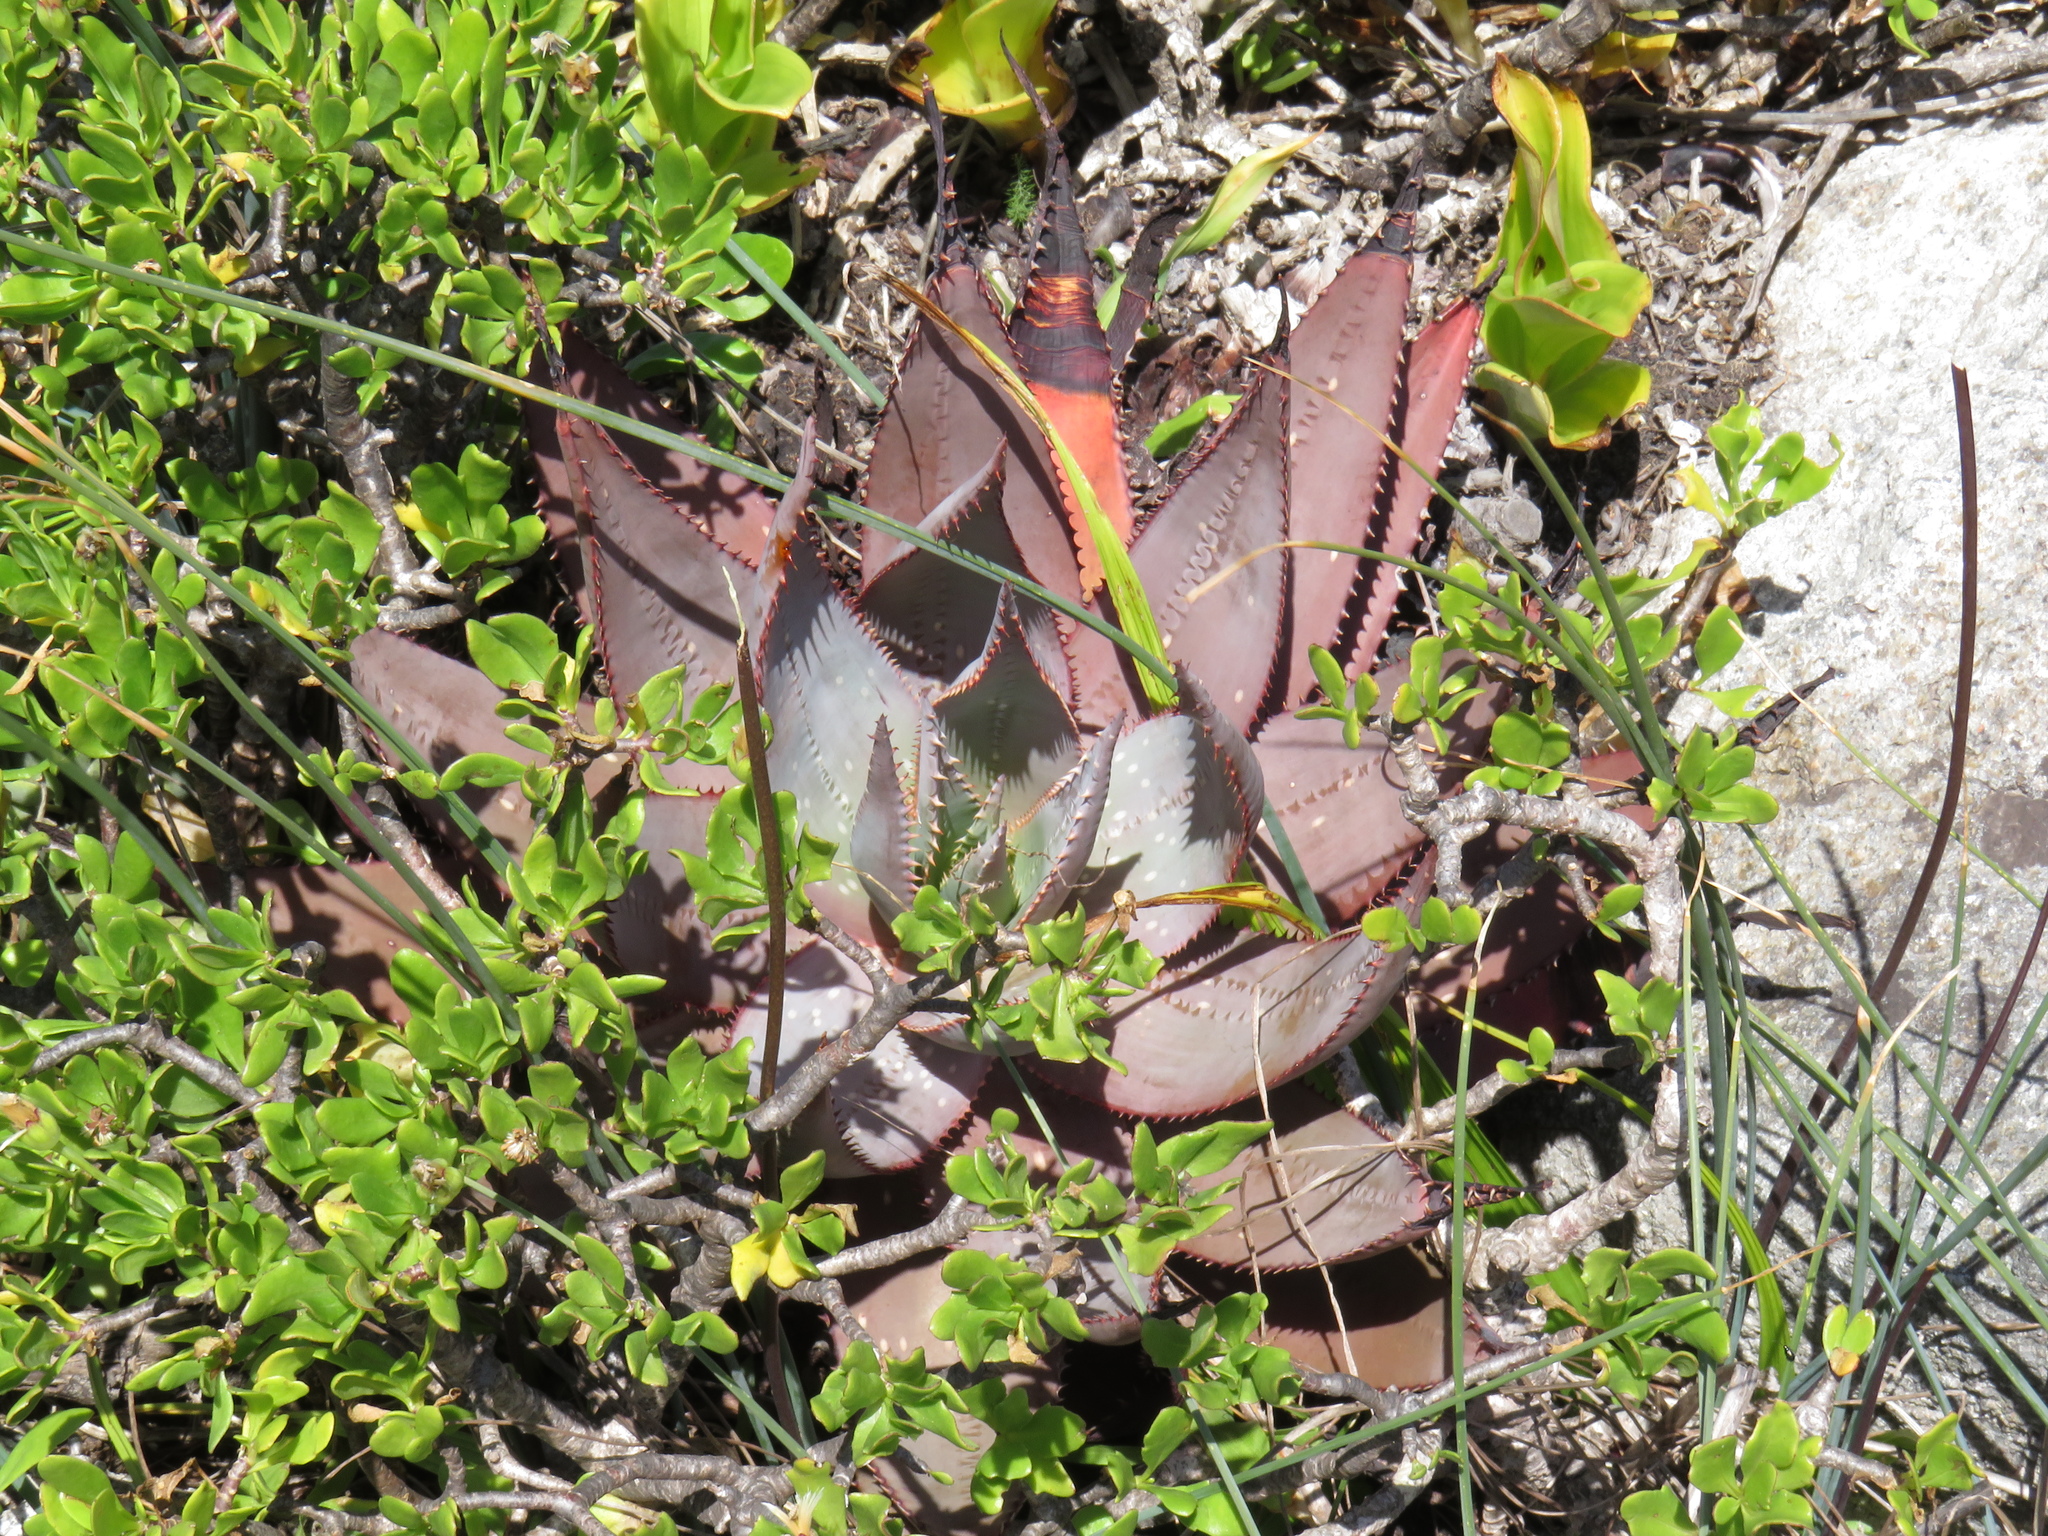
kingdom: Plantae
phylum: Tracheophyta
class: Liliopsida
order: Asparagales
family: Asphodelaceae
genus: Aloe
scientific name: Aloe microstigma
